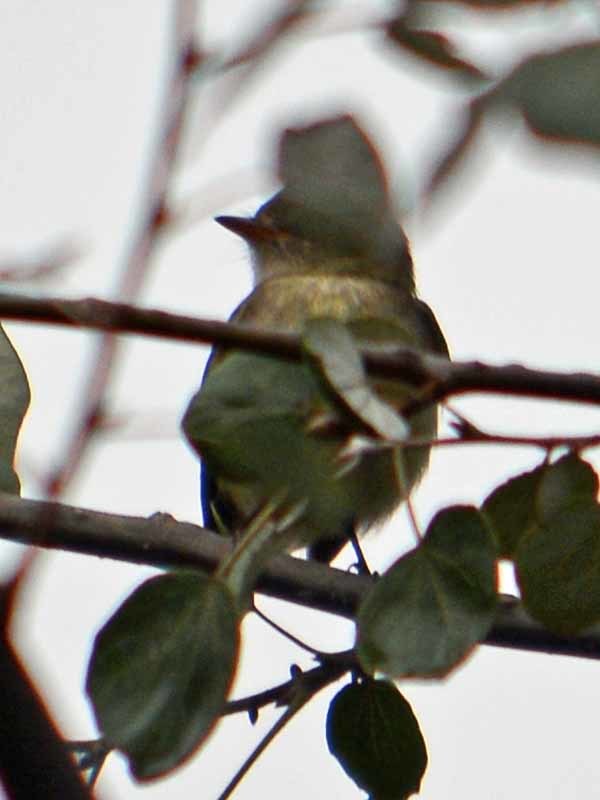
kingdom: Animalia
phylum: Chordata
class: Aves
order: Passeriformes
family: Tyrannidae
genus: Empidonax
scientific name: Empidonax hammondii
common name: Hammond's flycatcher
